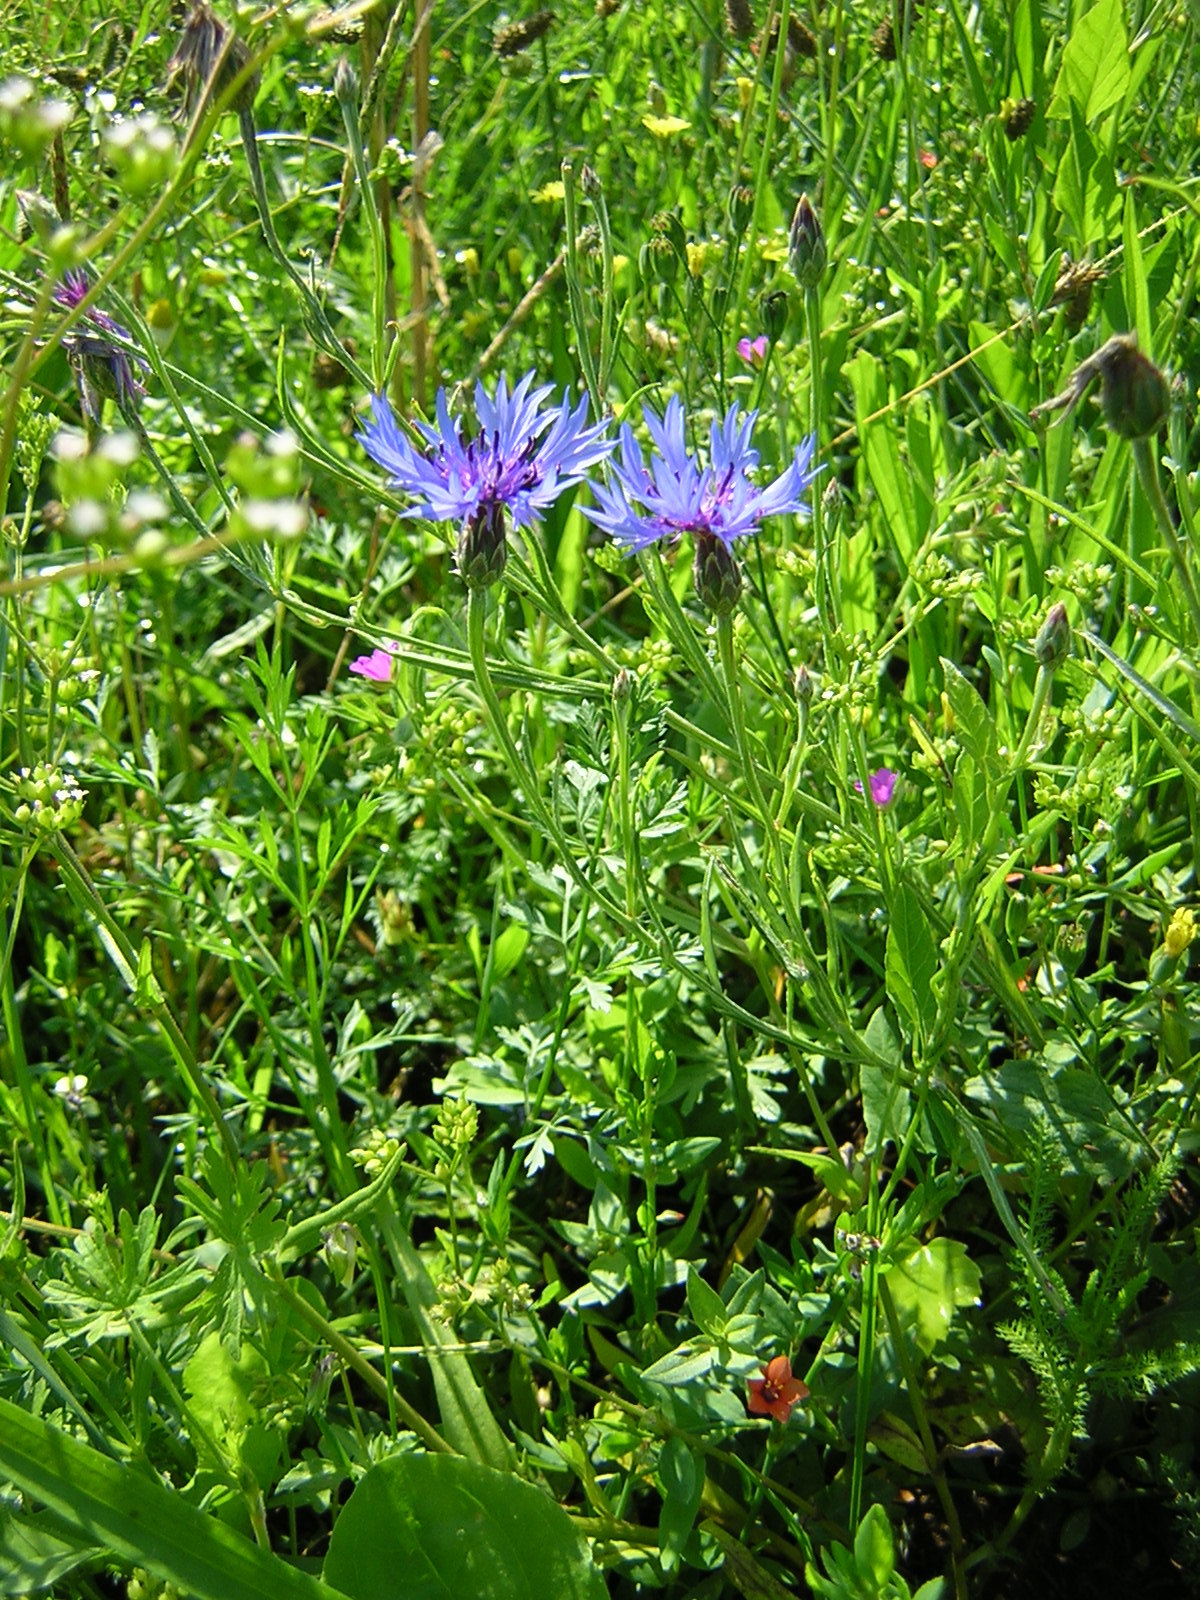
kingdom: Plantae
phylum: Tracheophyta
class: Magnoliopsida
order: Asterales
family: Asteraceae
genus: Centaurea
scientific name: Centaurea cyanus
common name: Cornflower
